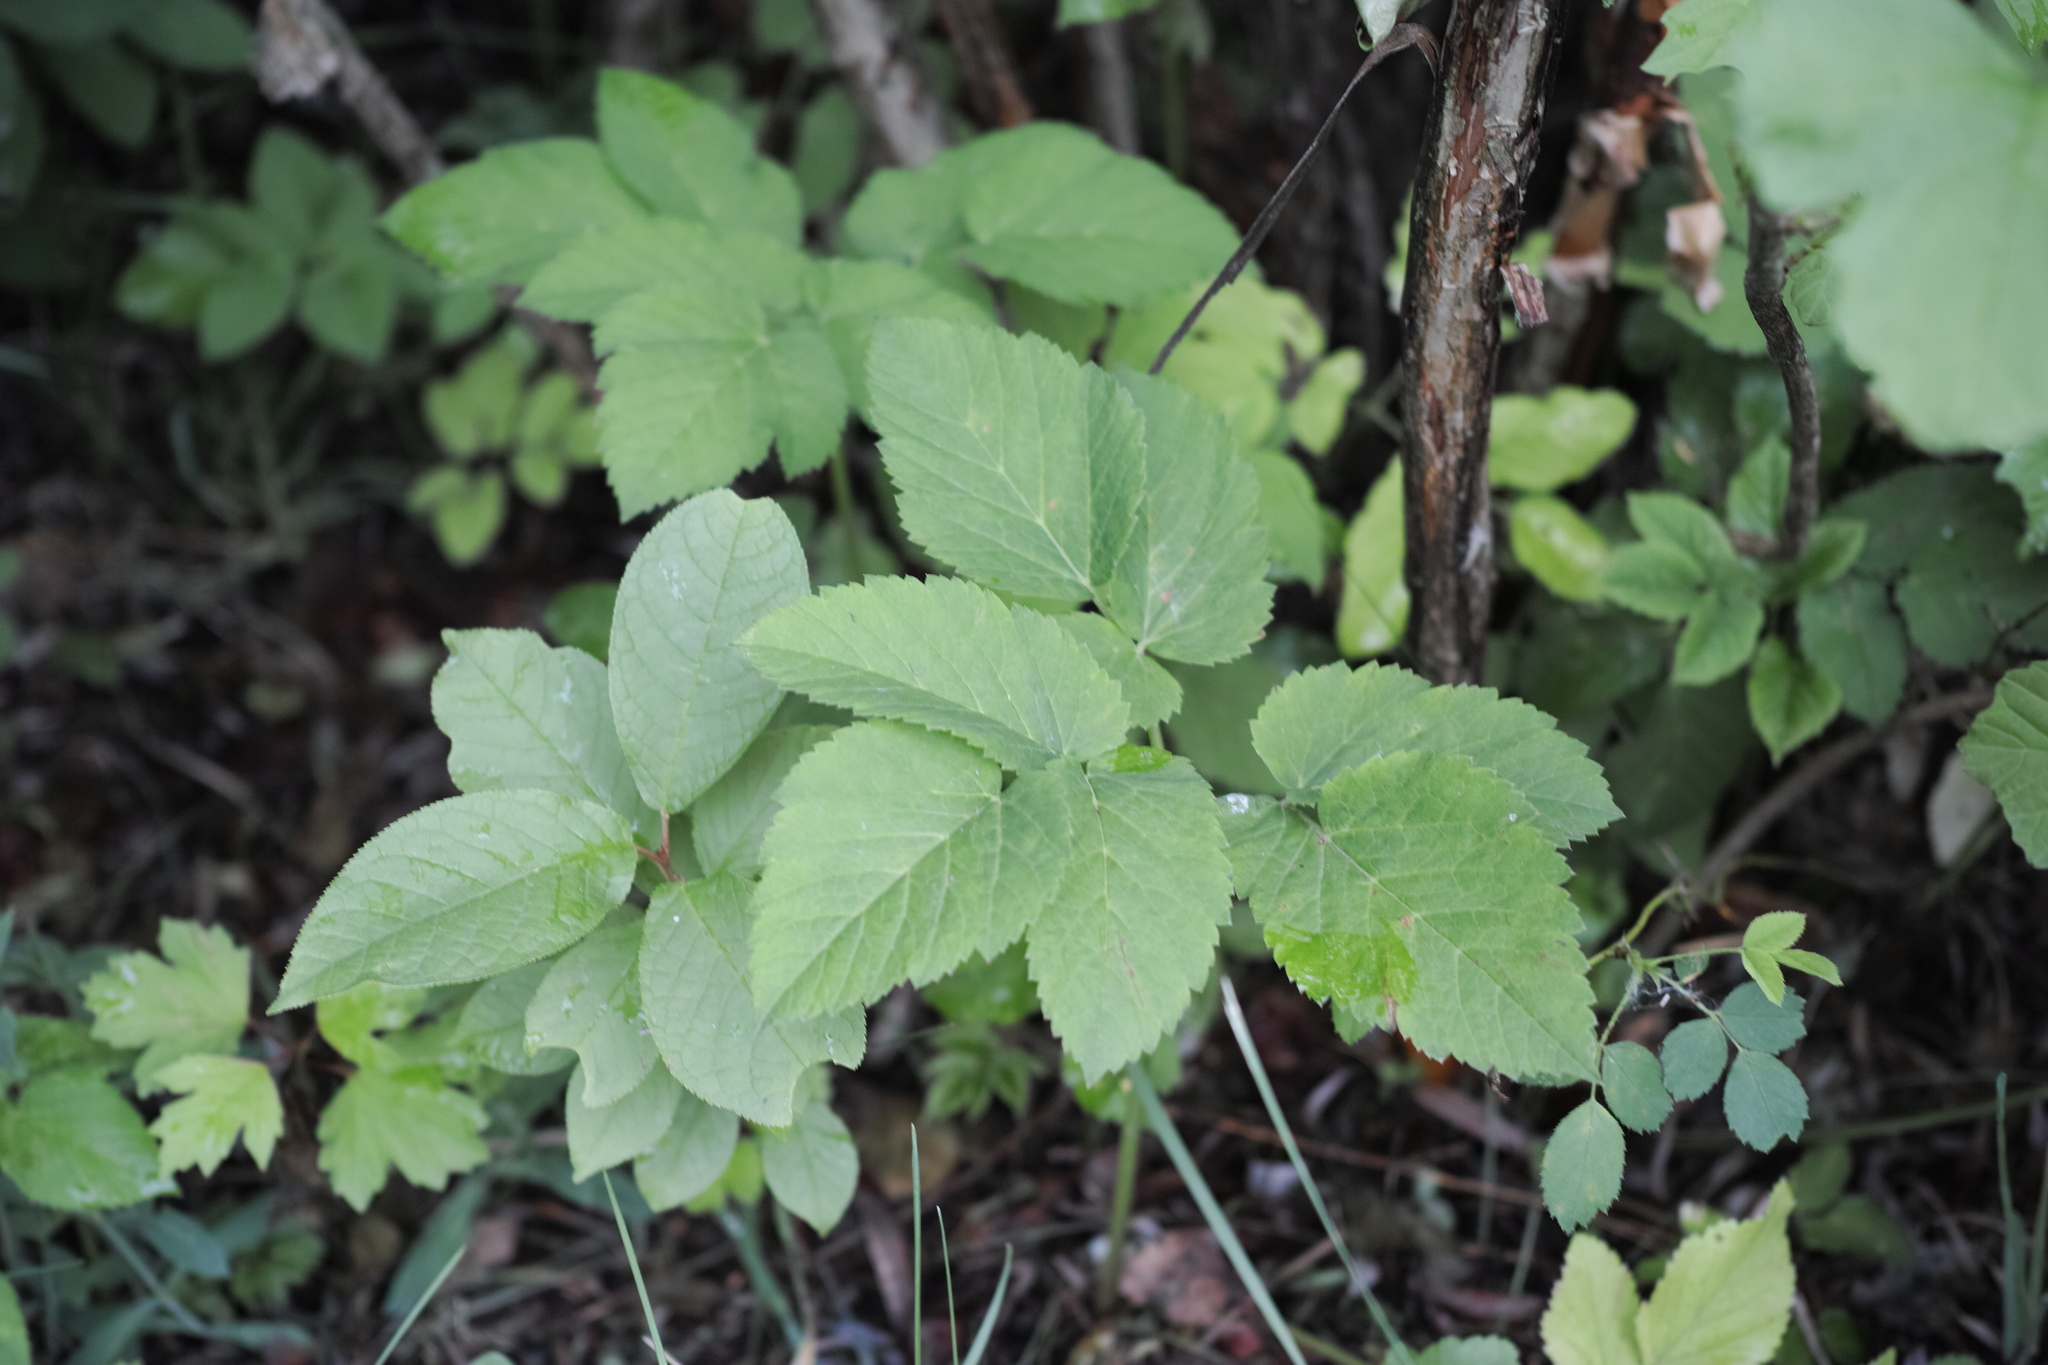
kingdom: Plantae
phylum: Tracheophyta
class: Magnoliopsida
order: Apiales
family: Apiaceae
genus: Aegopodium
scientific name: Aegopodium podagraria
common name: Ground-elder
